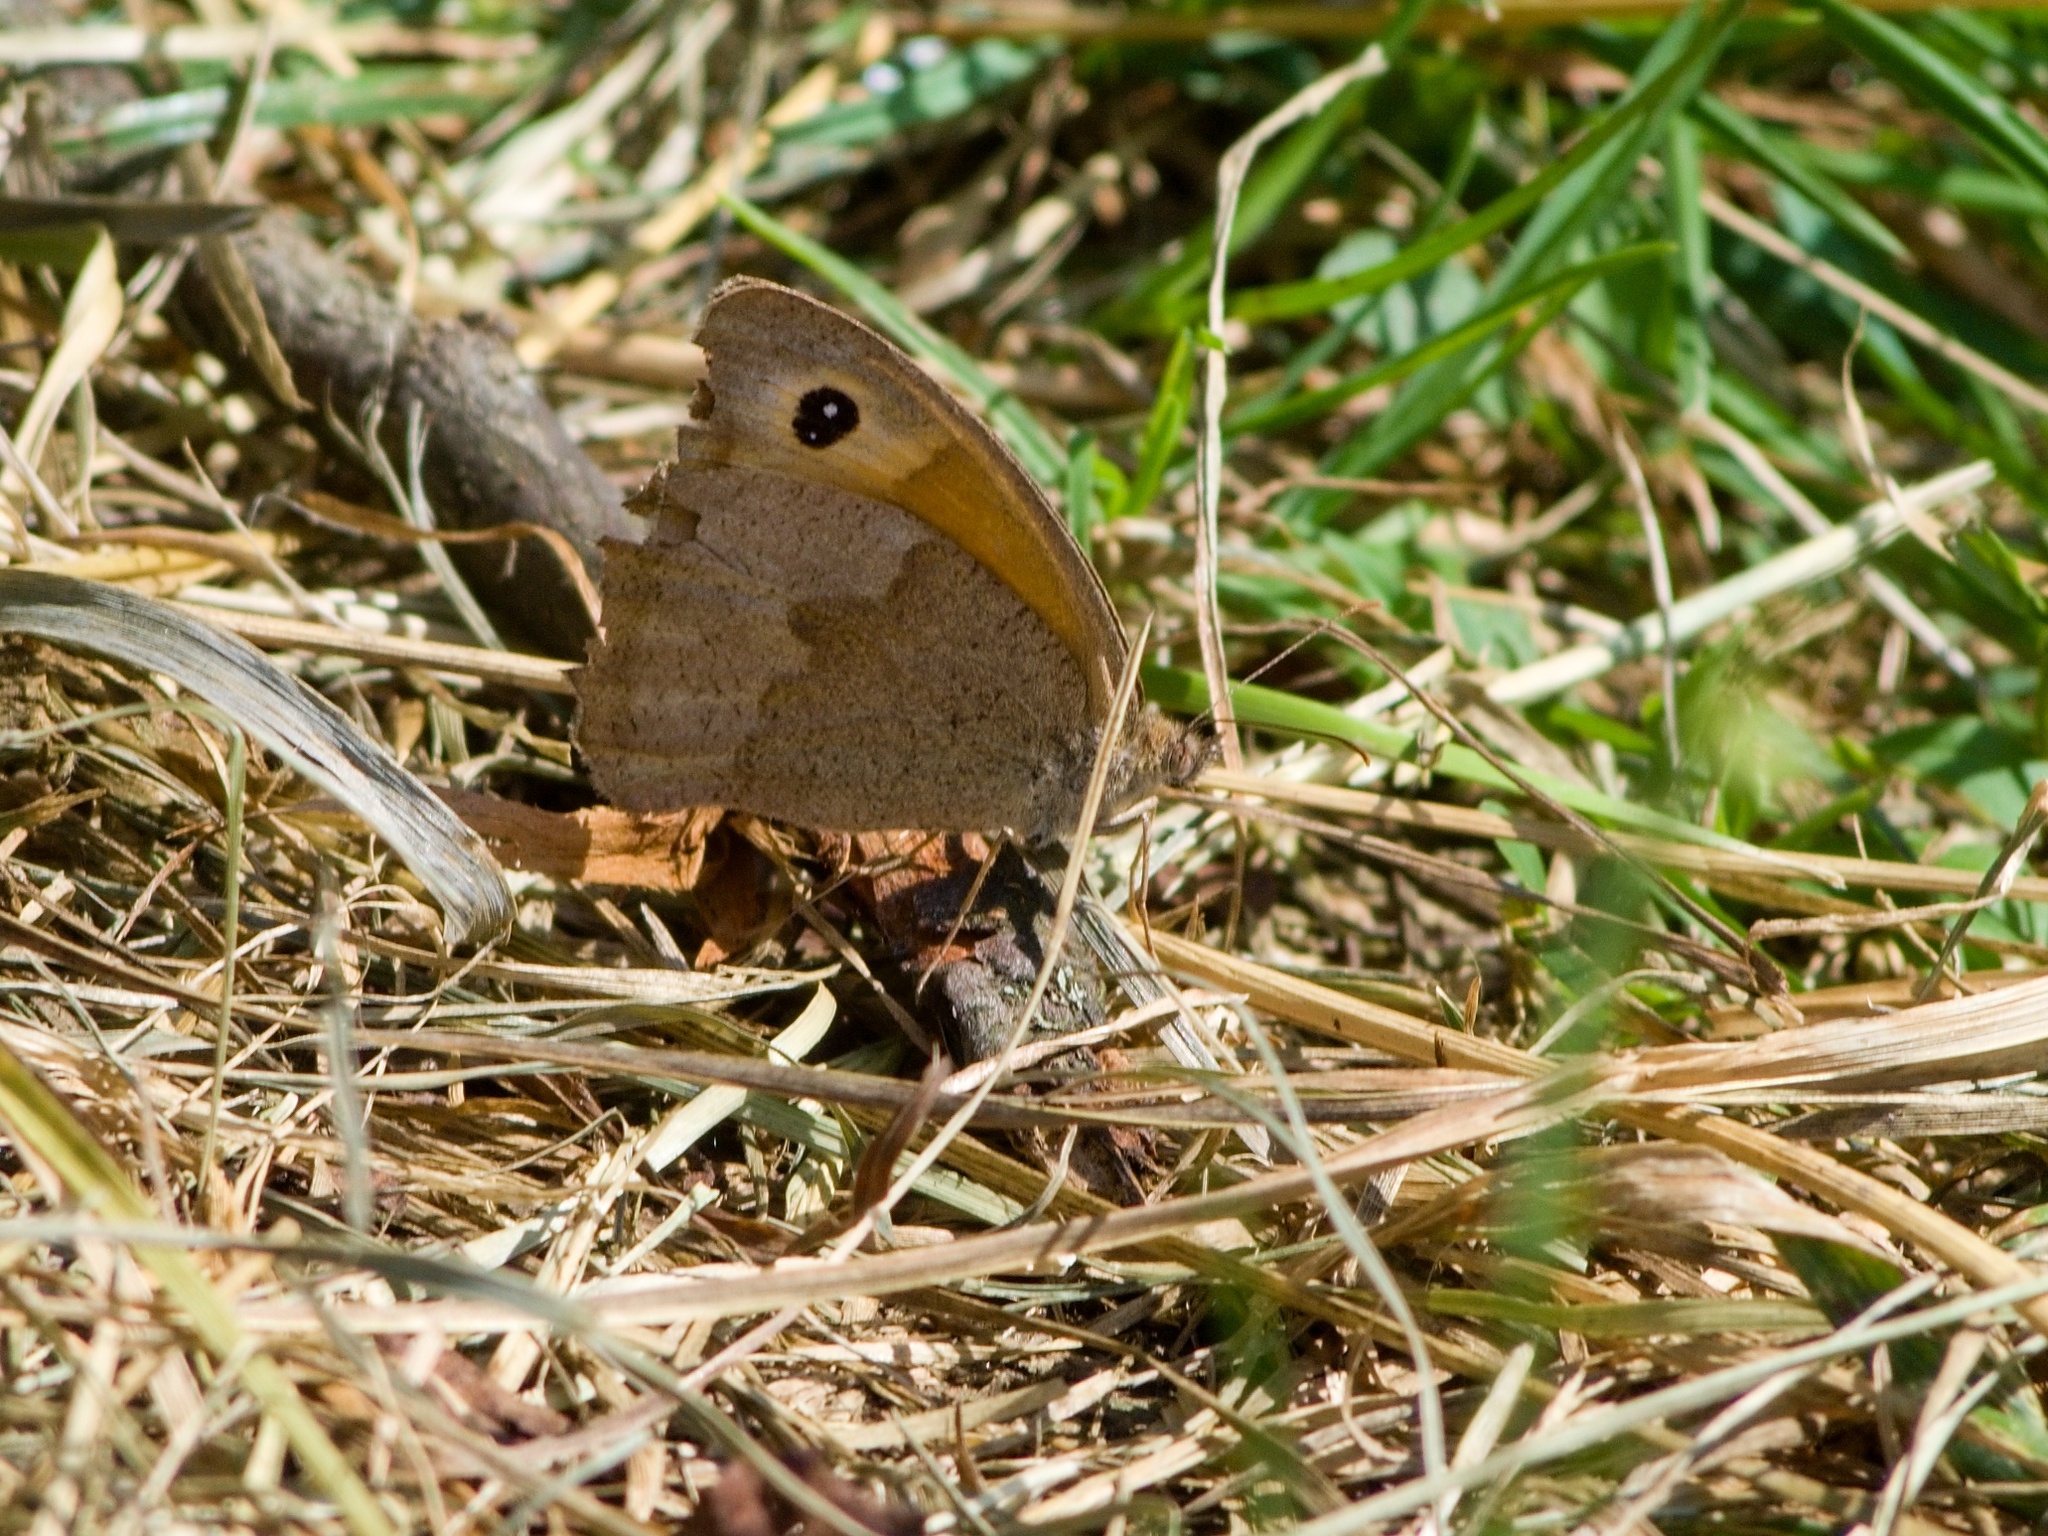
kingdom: Animalia
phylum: Arthropoda
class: Insecta
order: Lepidoptera
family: Nymphalidae
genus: Maniola
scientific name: Maniola jurtina
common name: Meadow brown
